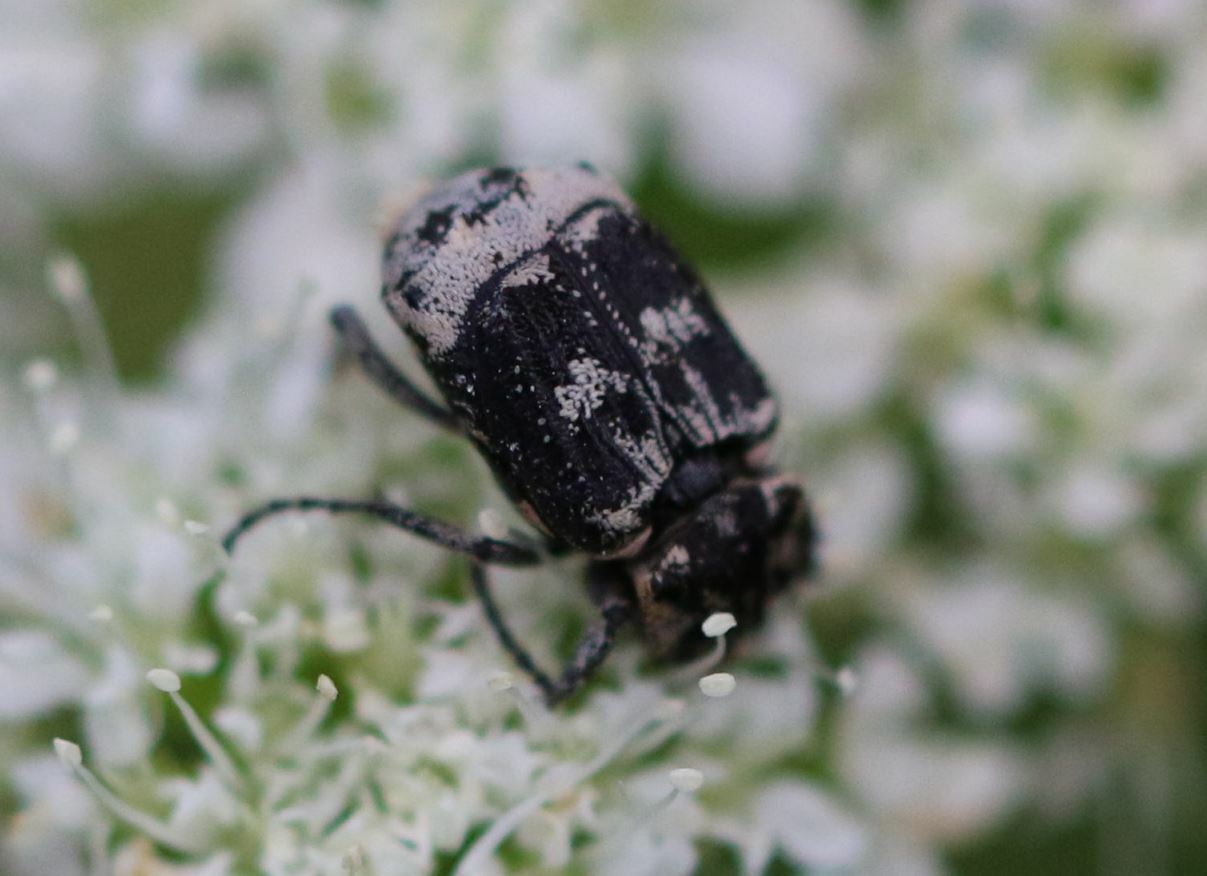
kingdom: Animalia
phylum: Arthropoda
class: Insecta
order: Coleoptera
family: Scarabaeidae
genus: Valgus
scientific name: Valgus hemipterus
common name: Bug flower chafer
